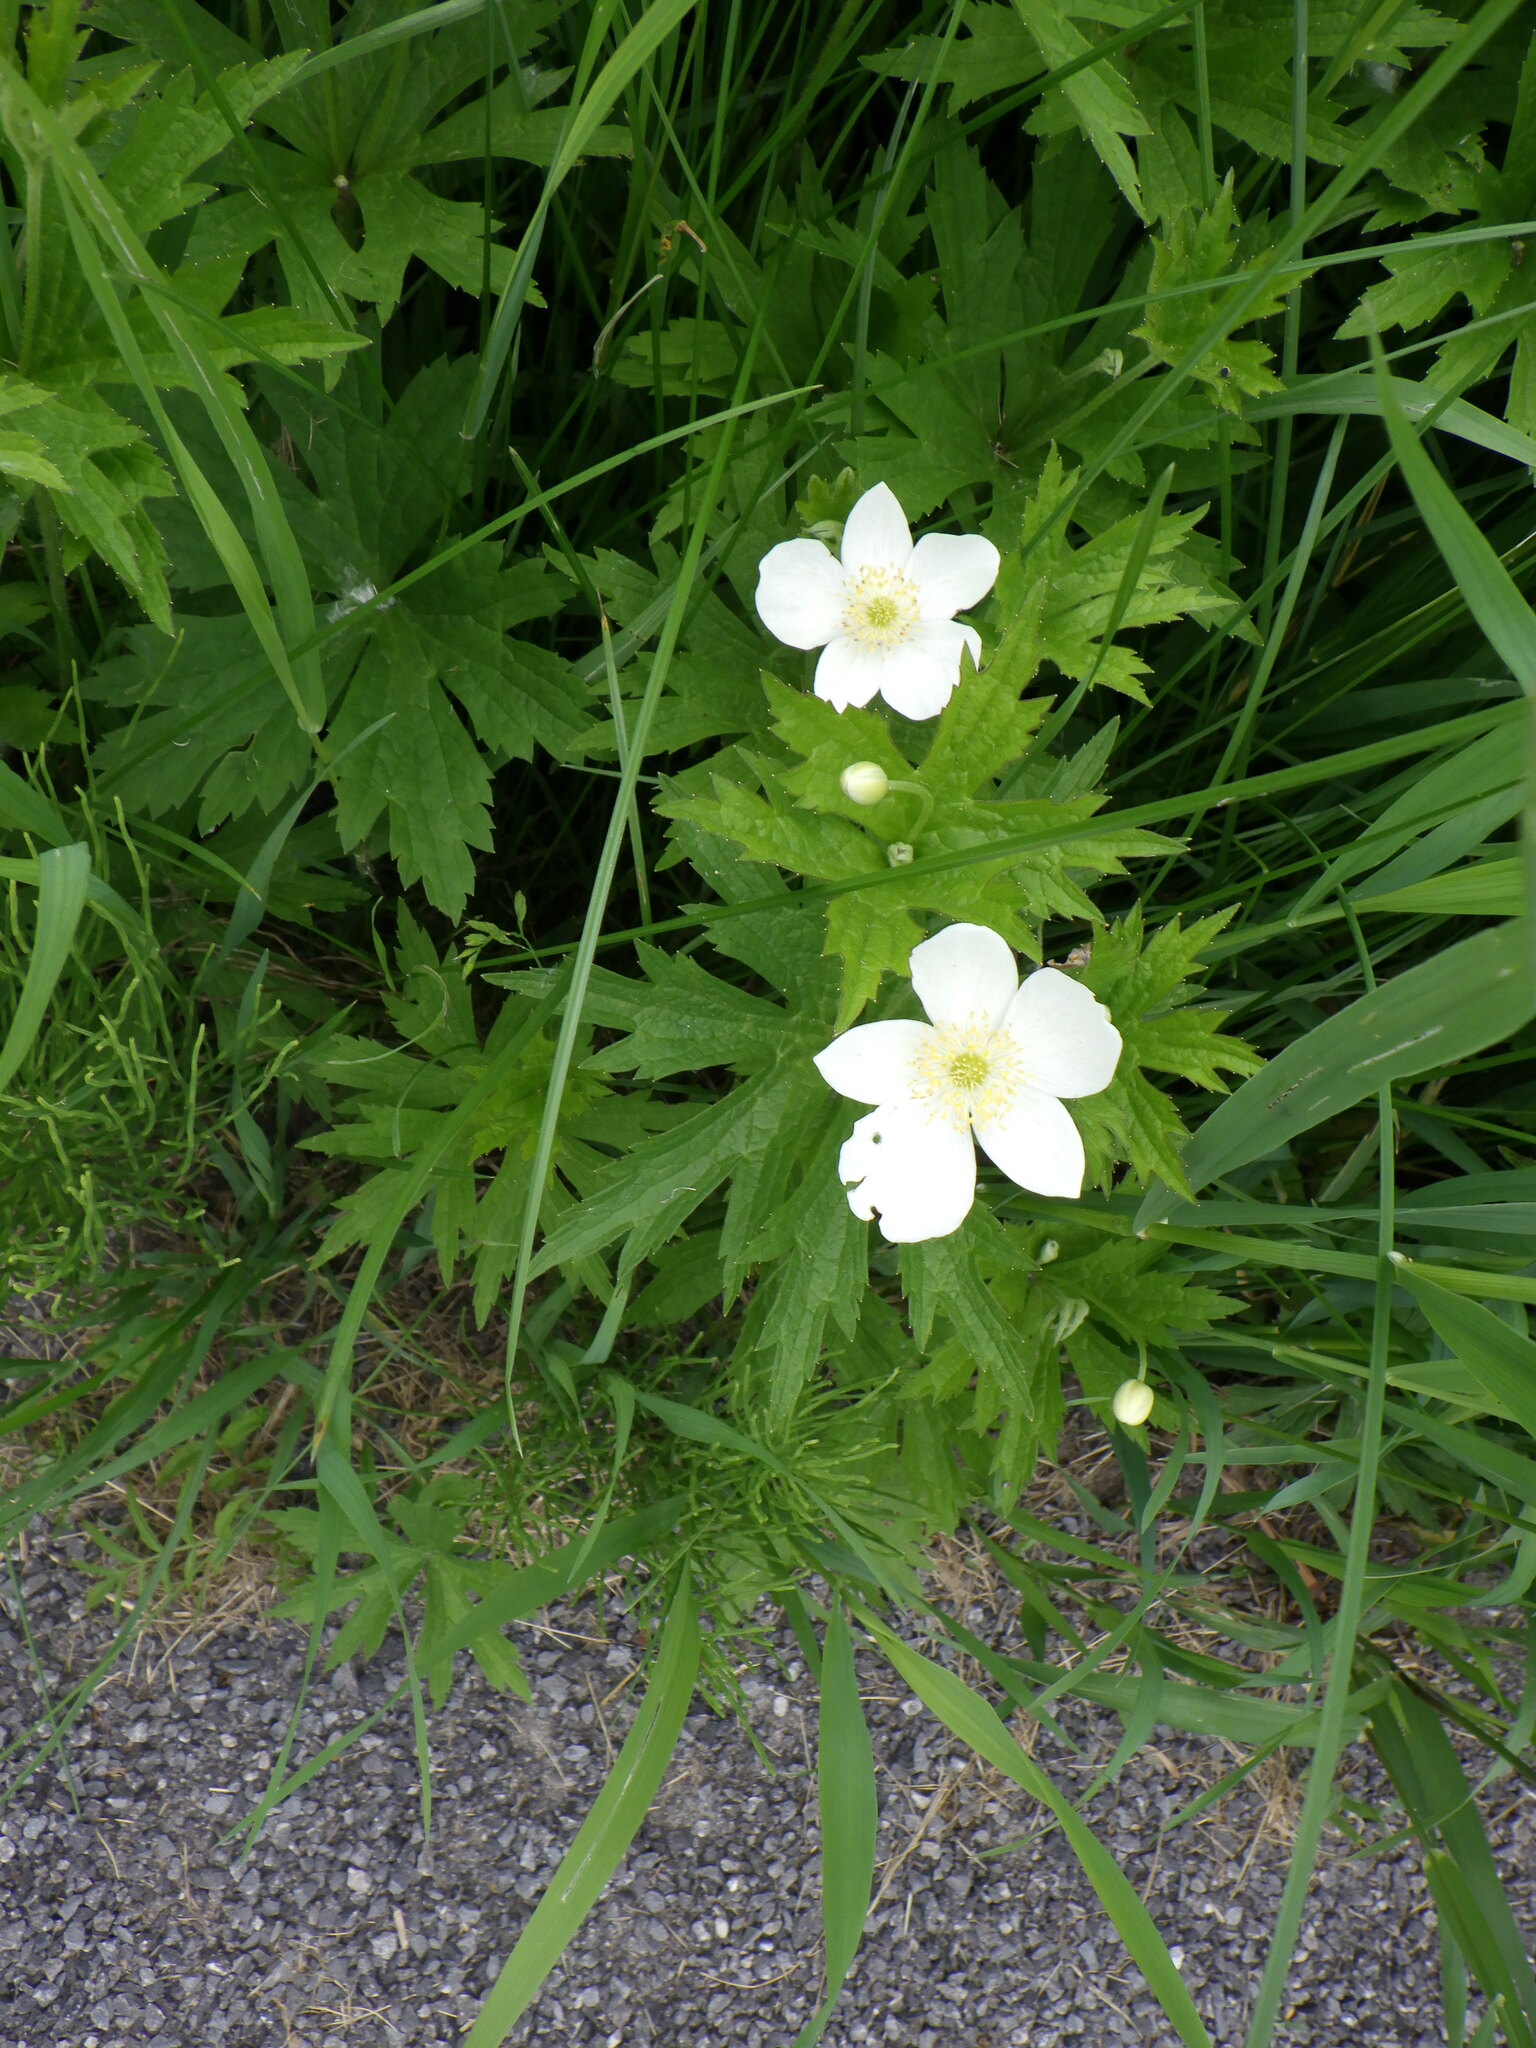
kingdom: Plantae
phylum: Tracheophyta
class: Magnoliopsida
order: Ranunculales
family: Ranunculaceae
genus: Anemonastrum
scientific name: Anemonastrum canadense
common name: Canada anemone
